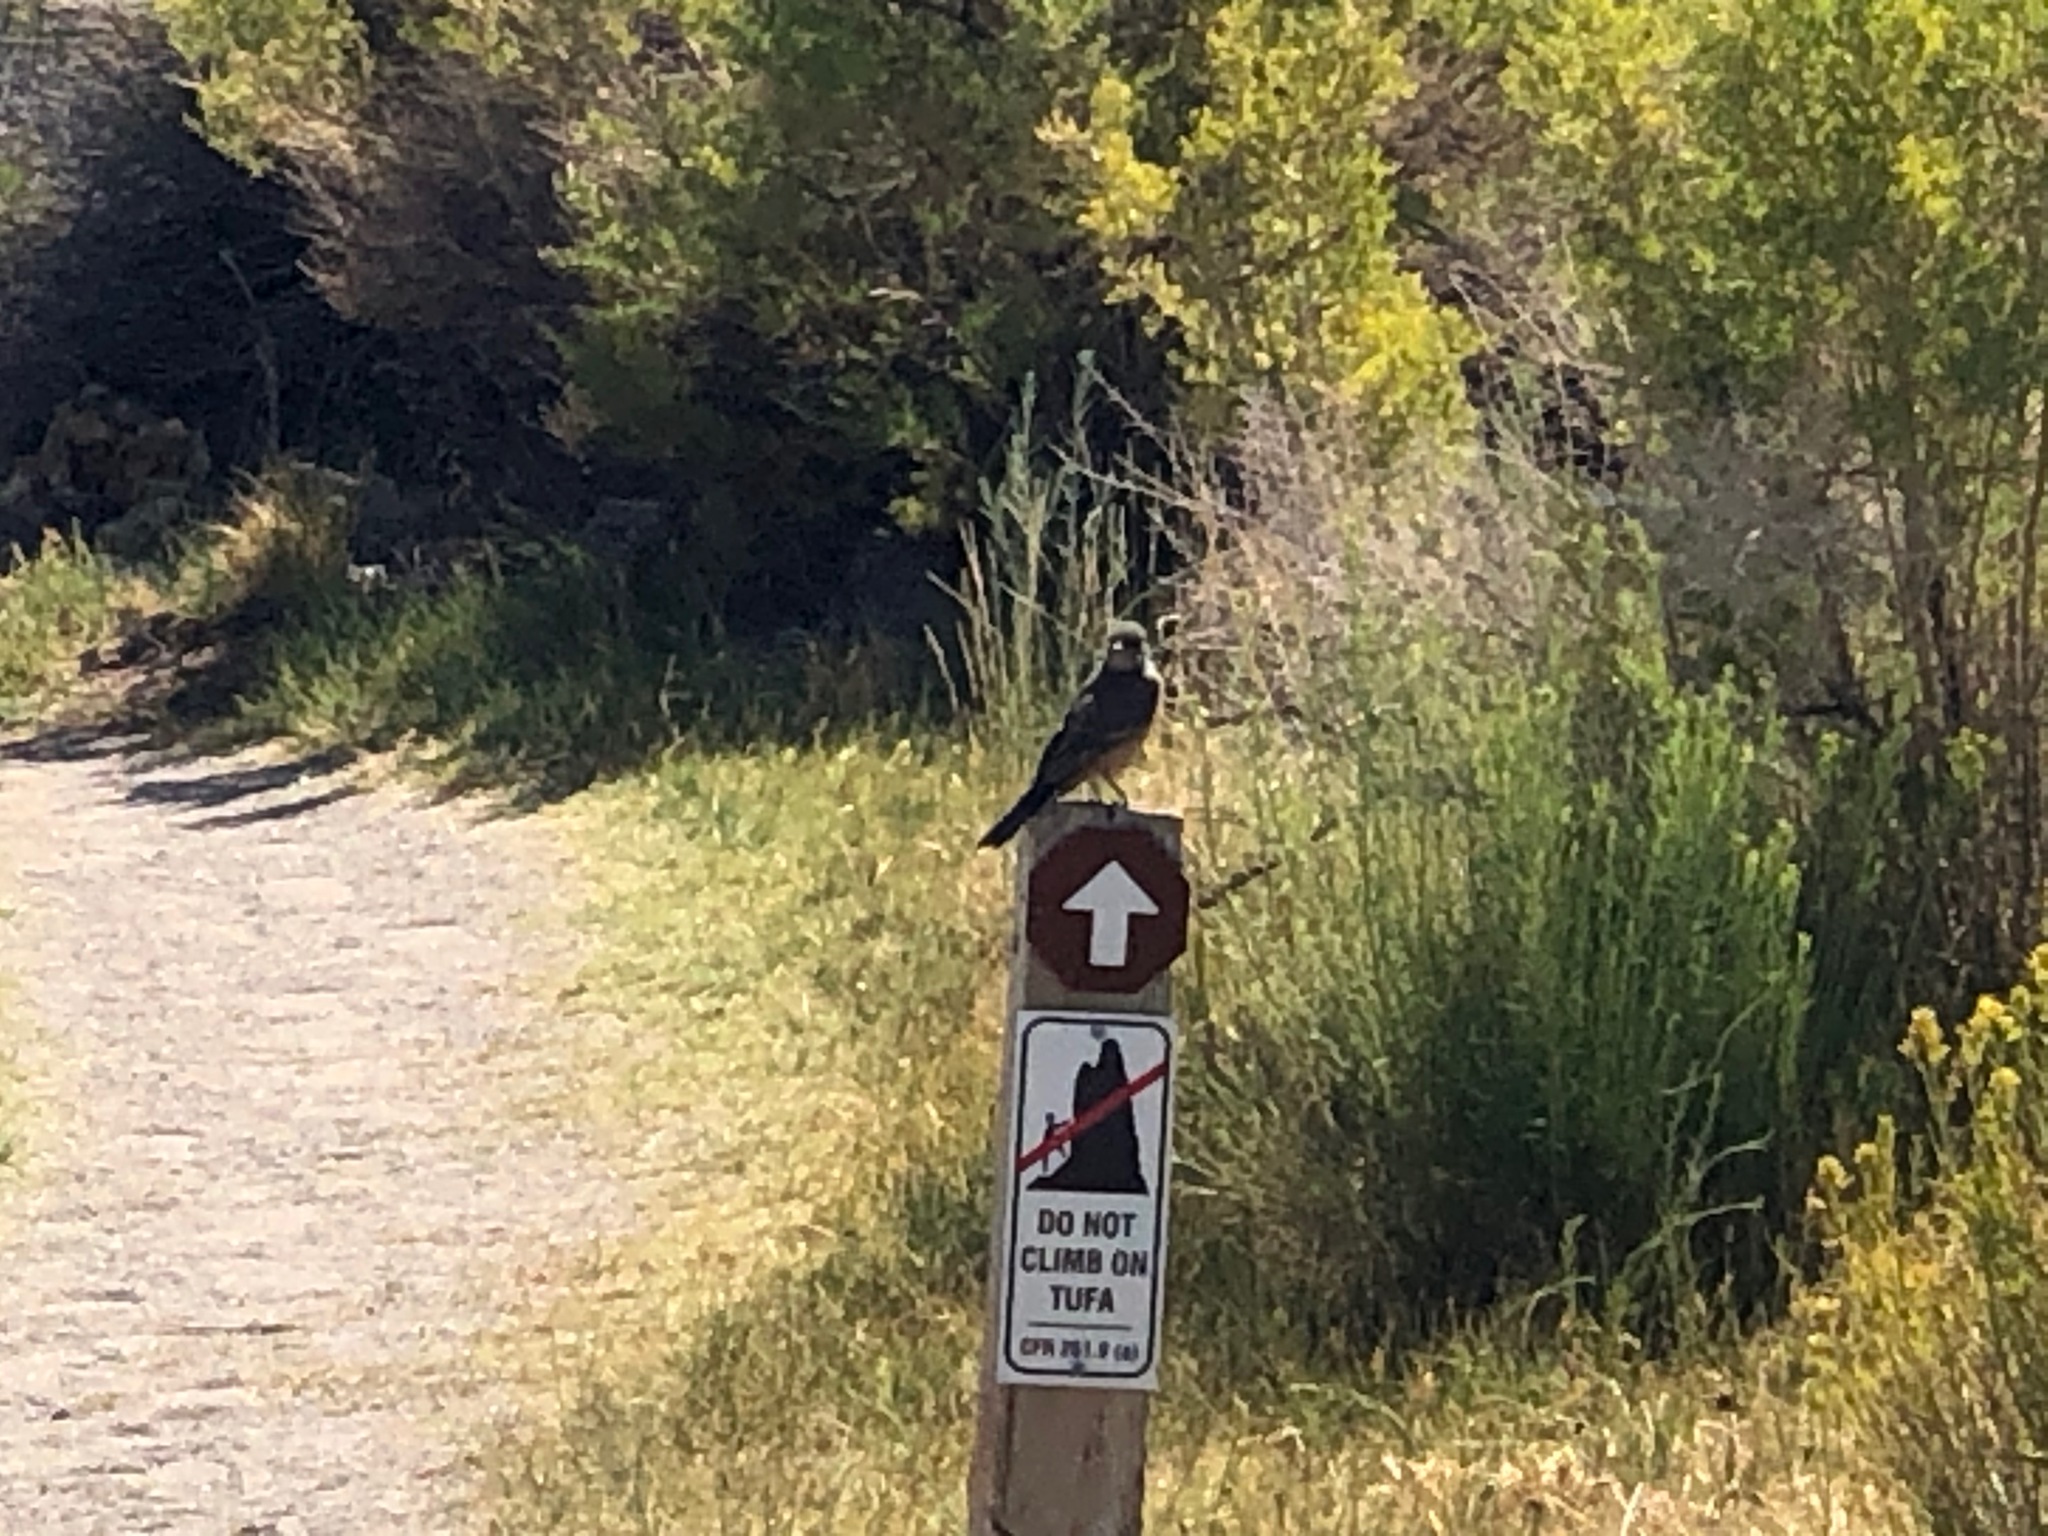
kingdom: Animalia
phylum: Chordata
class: Aves
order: Passeriformes
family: Tyrannidae
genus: Sayornis
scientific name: Sayornis saya
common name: Say's phoebe
